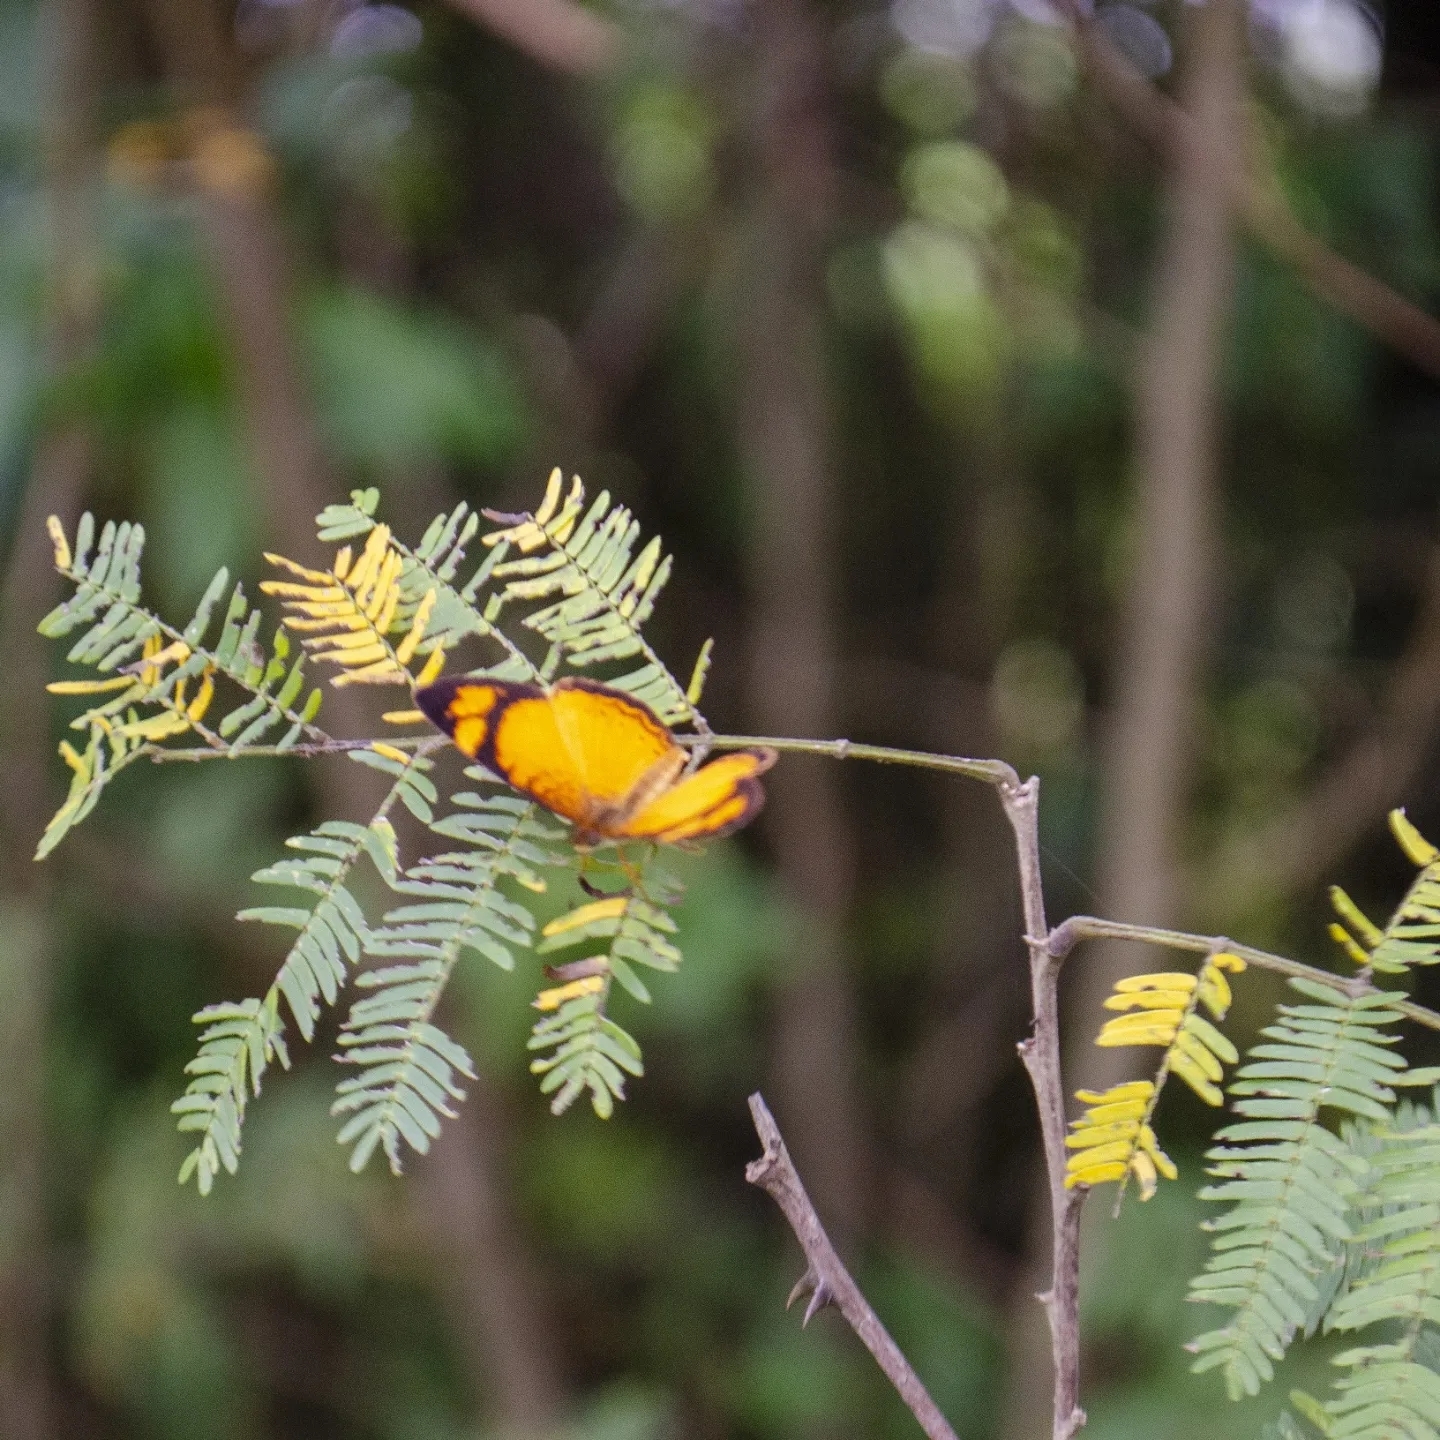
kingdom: Animalia
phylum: Arthropoda
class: Insecta
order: Lepidoptera
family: Nymphalidae
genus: Tegosa
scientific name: Tegosa claudina
